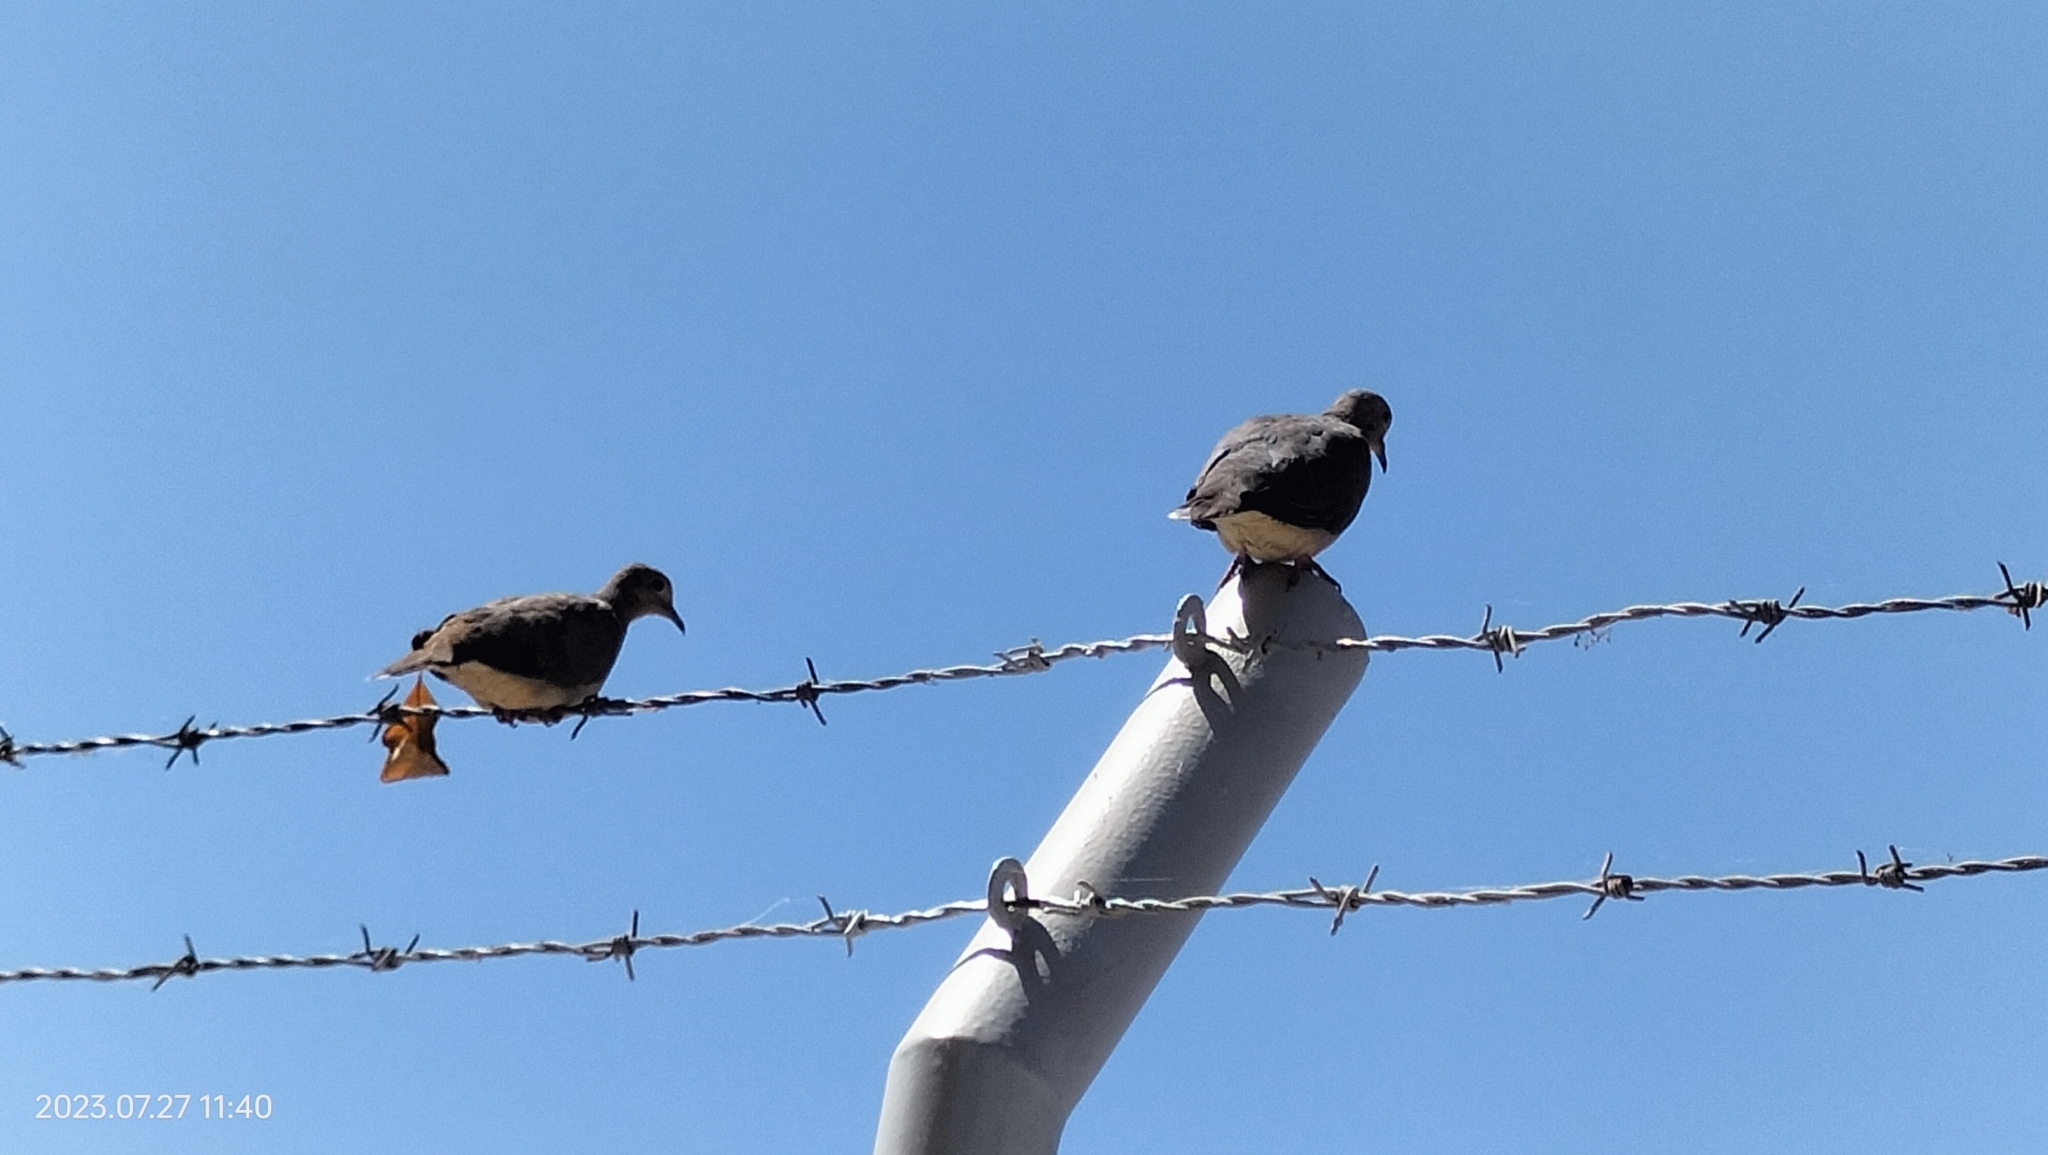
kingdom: Animalia
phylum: Chordata
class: Aves
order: Columbiformes
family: Columbidae
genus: Zenaida
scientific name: Zenaida auriculata
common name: Eared dove
